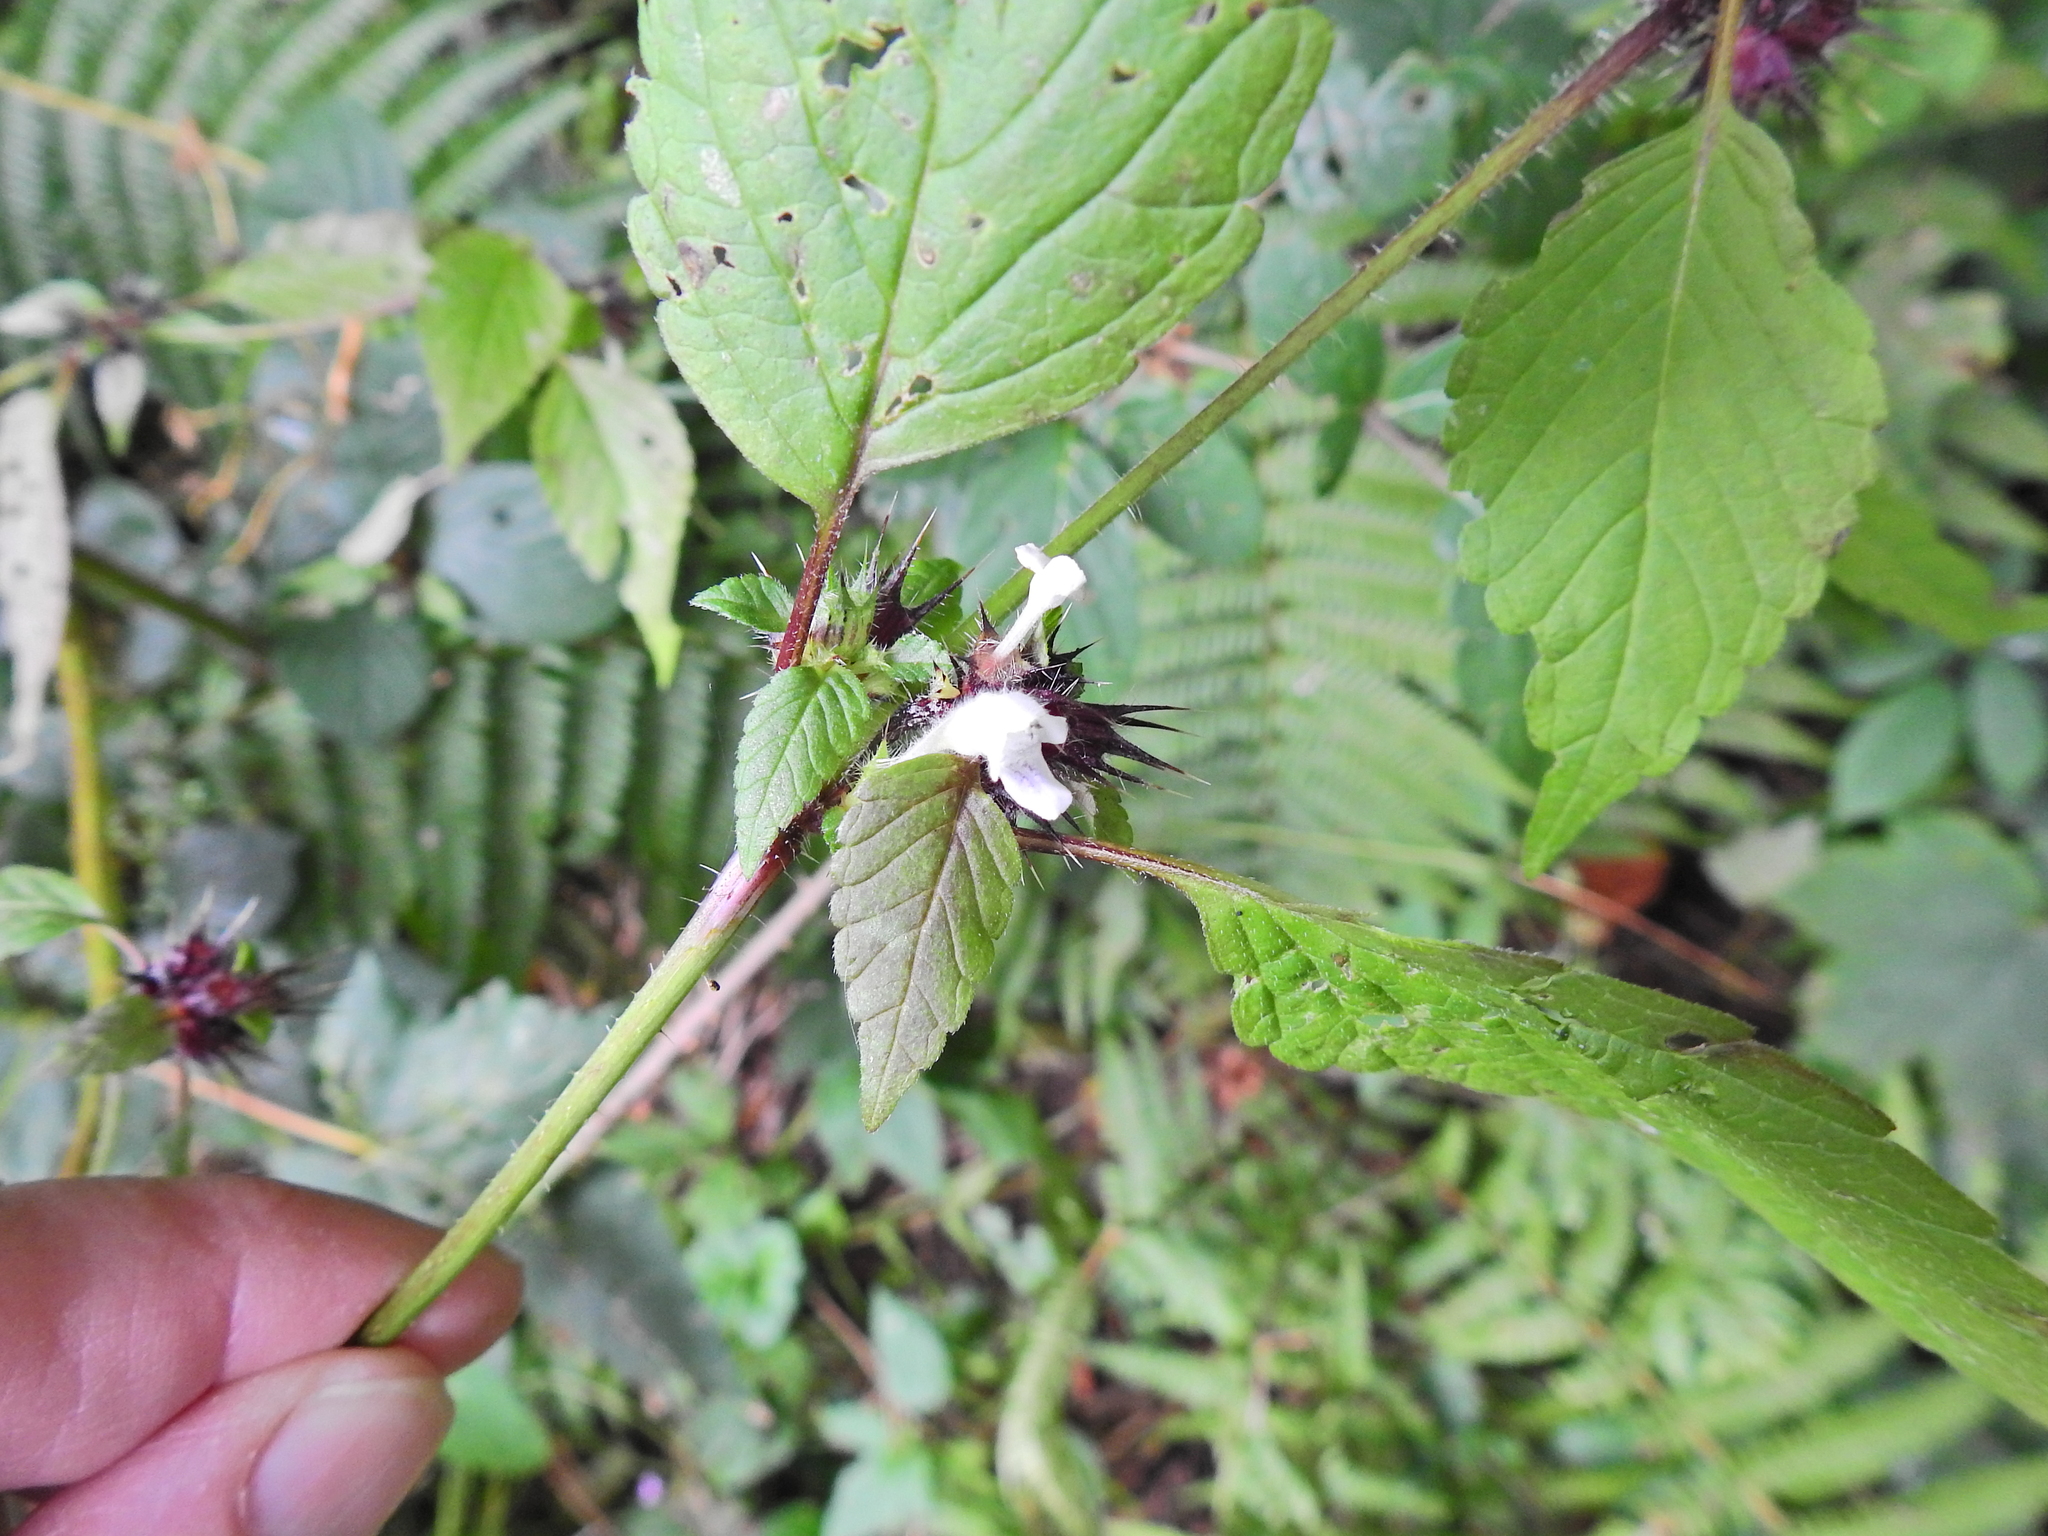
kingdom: Plantae
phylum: Tracheophyta
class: Magnoliopsida
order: Lamiales
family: Lamiaceae
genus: Galeopsis
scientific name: Galeopsis tetrahit
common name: Common hemp-nettle
